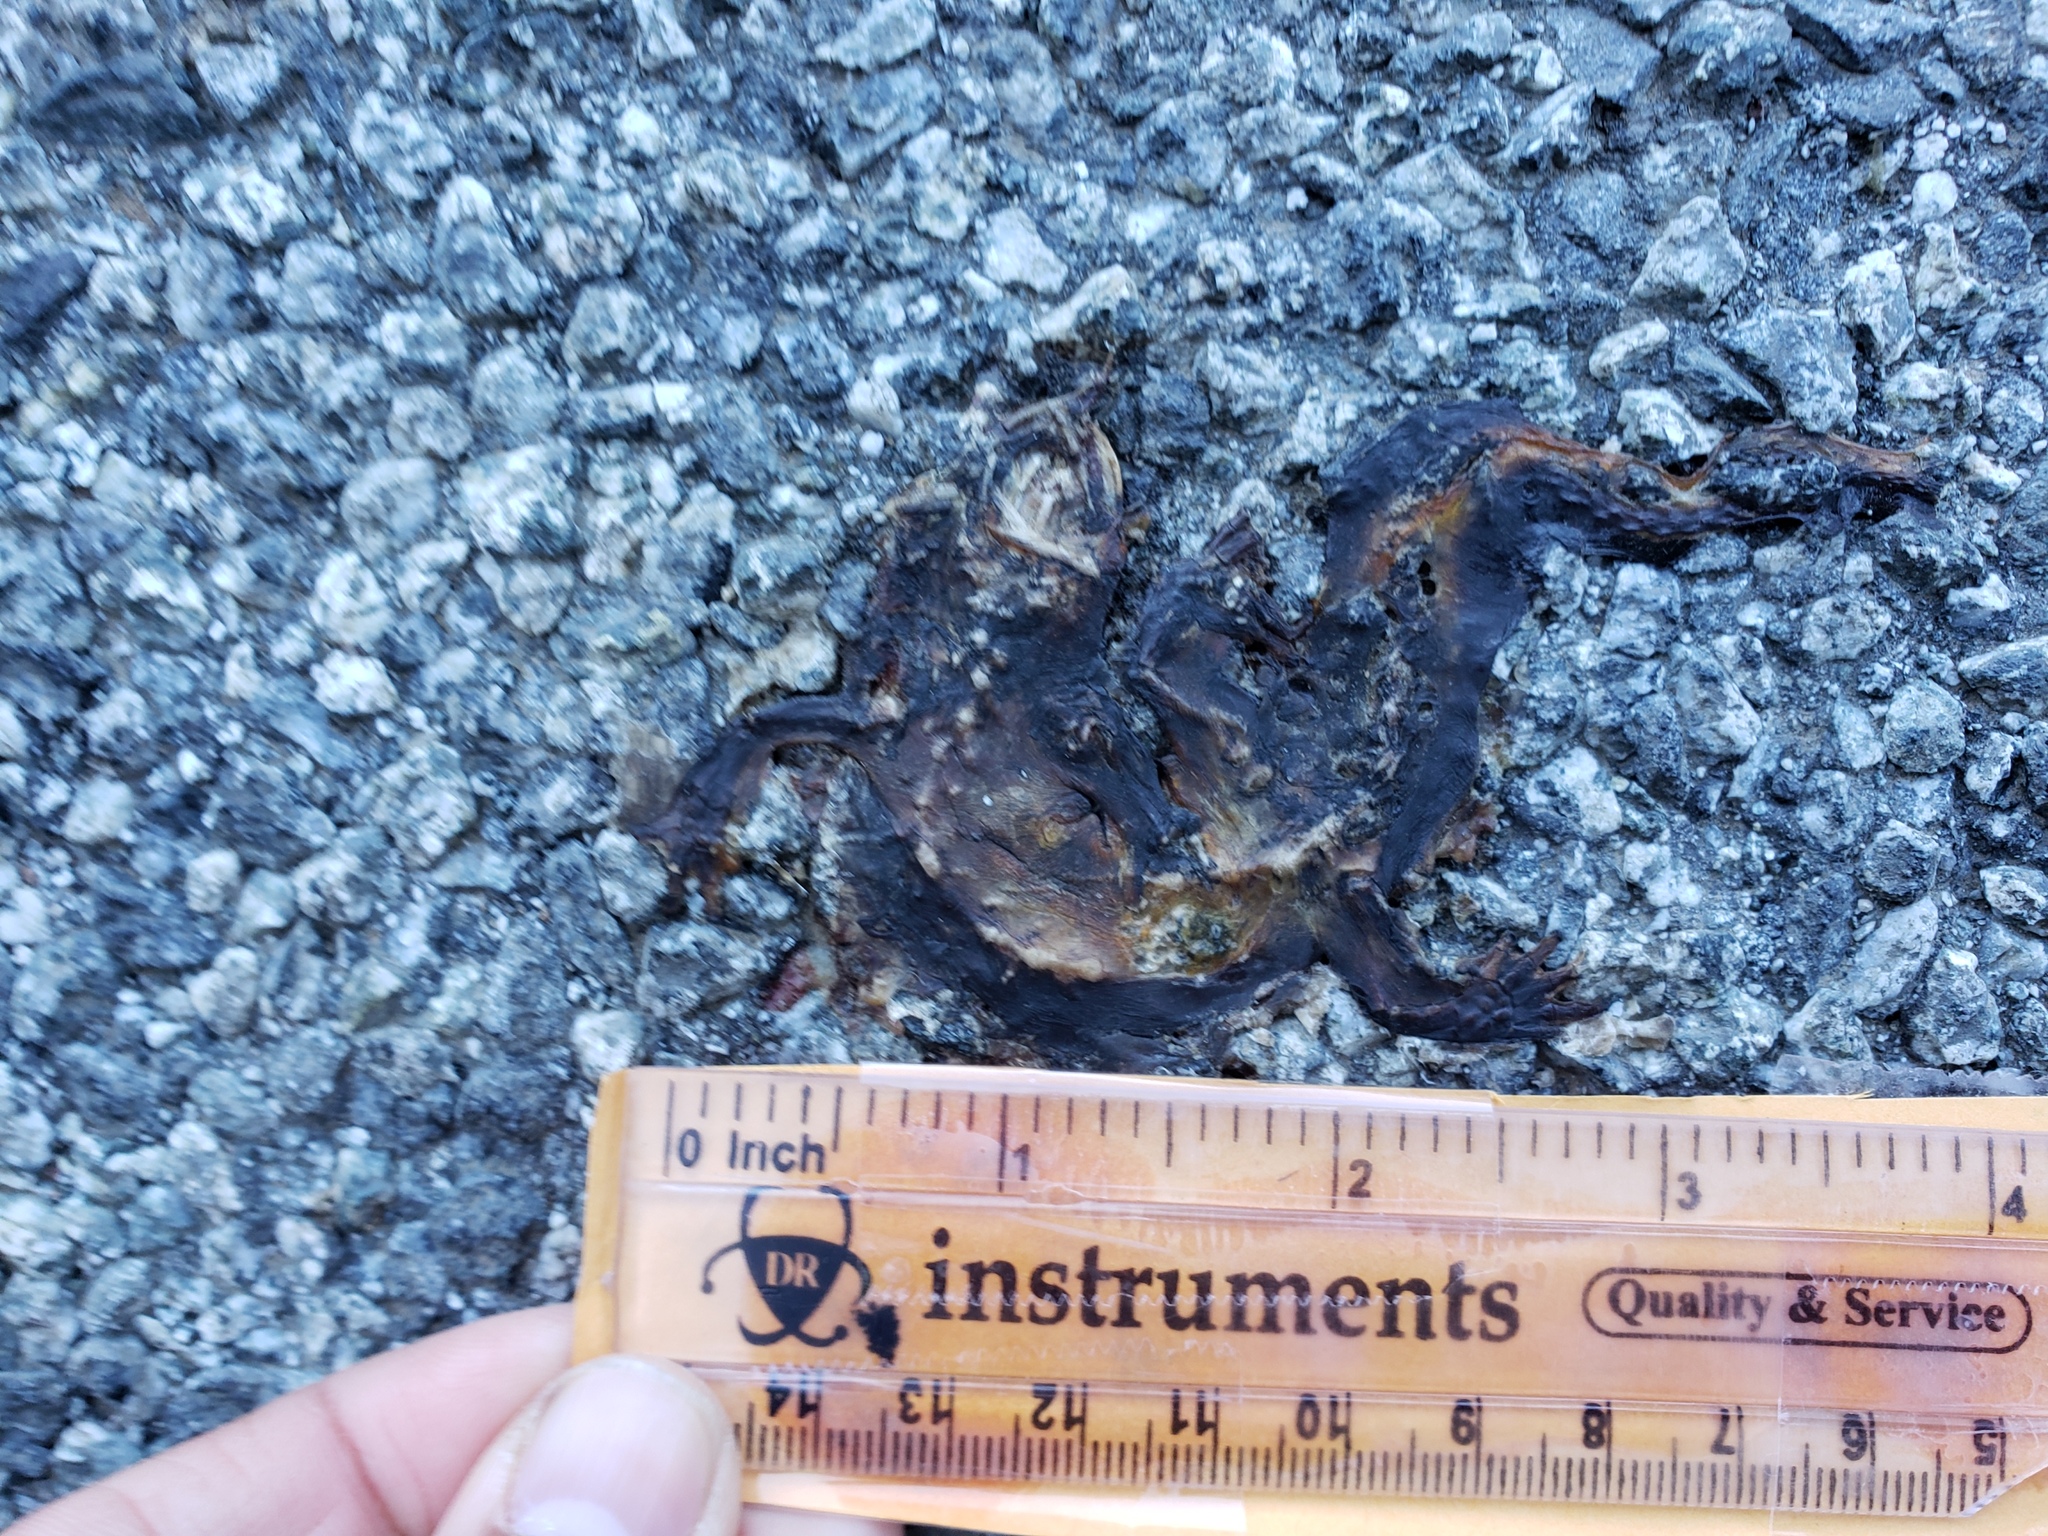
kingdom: Animalia
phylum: Chordata
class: Amphibia
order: Caudata
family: Salamandridae
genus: Taricha
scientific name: Taricha
